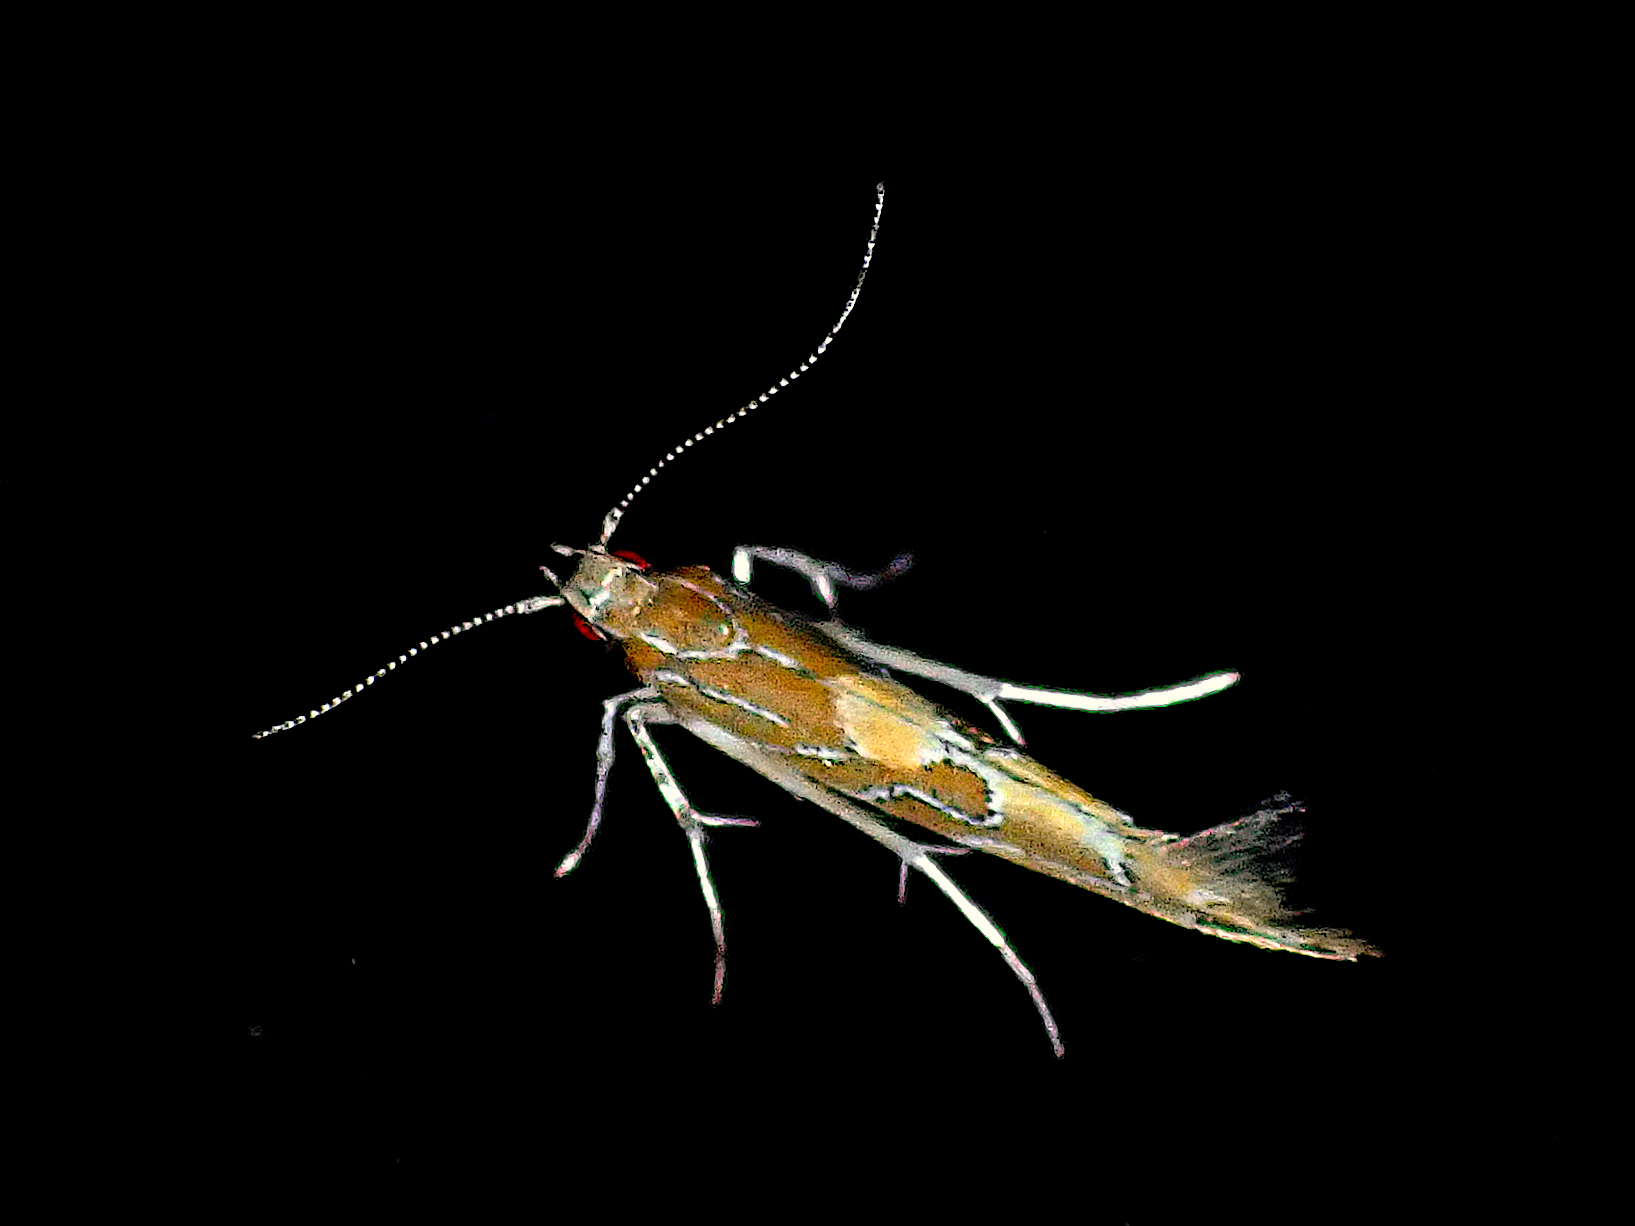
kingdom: Animalia
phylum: Arthropoda
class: Insecta
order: Lepidoptera
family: Cosmopterigidae
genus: Pyroderces
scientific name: Pyroderces apparitella
